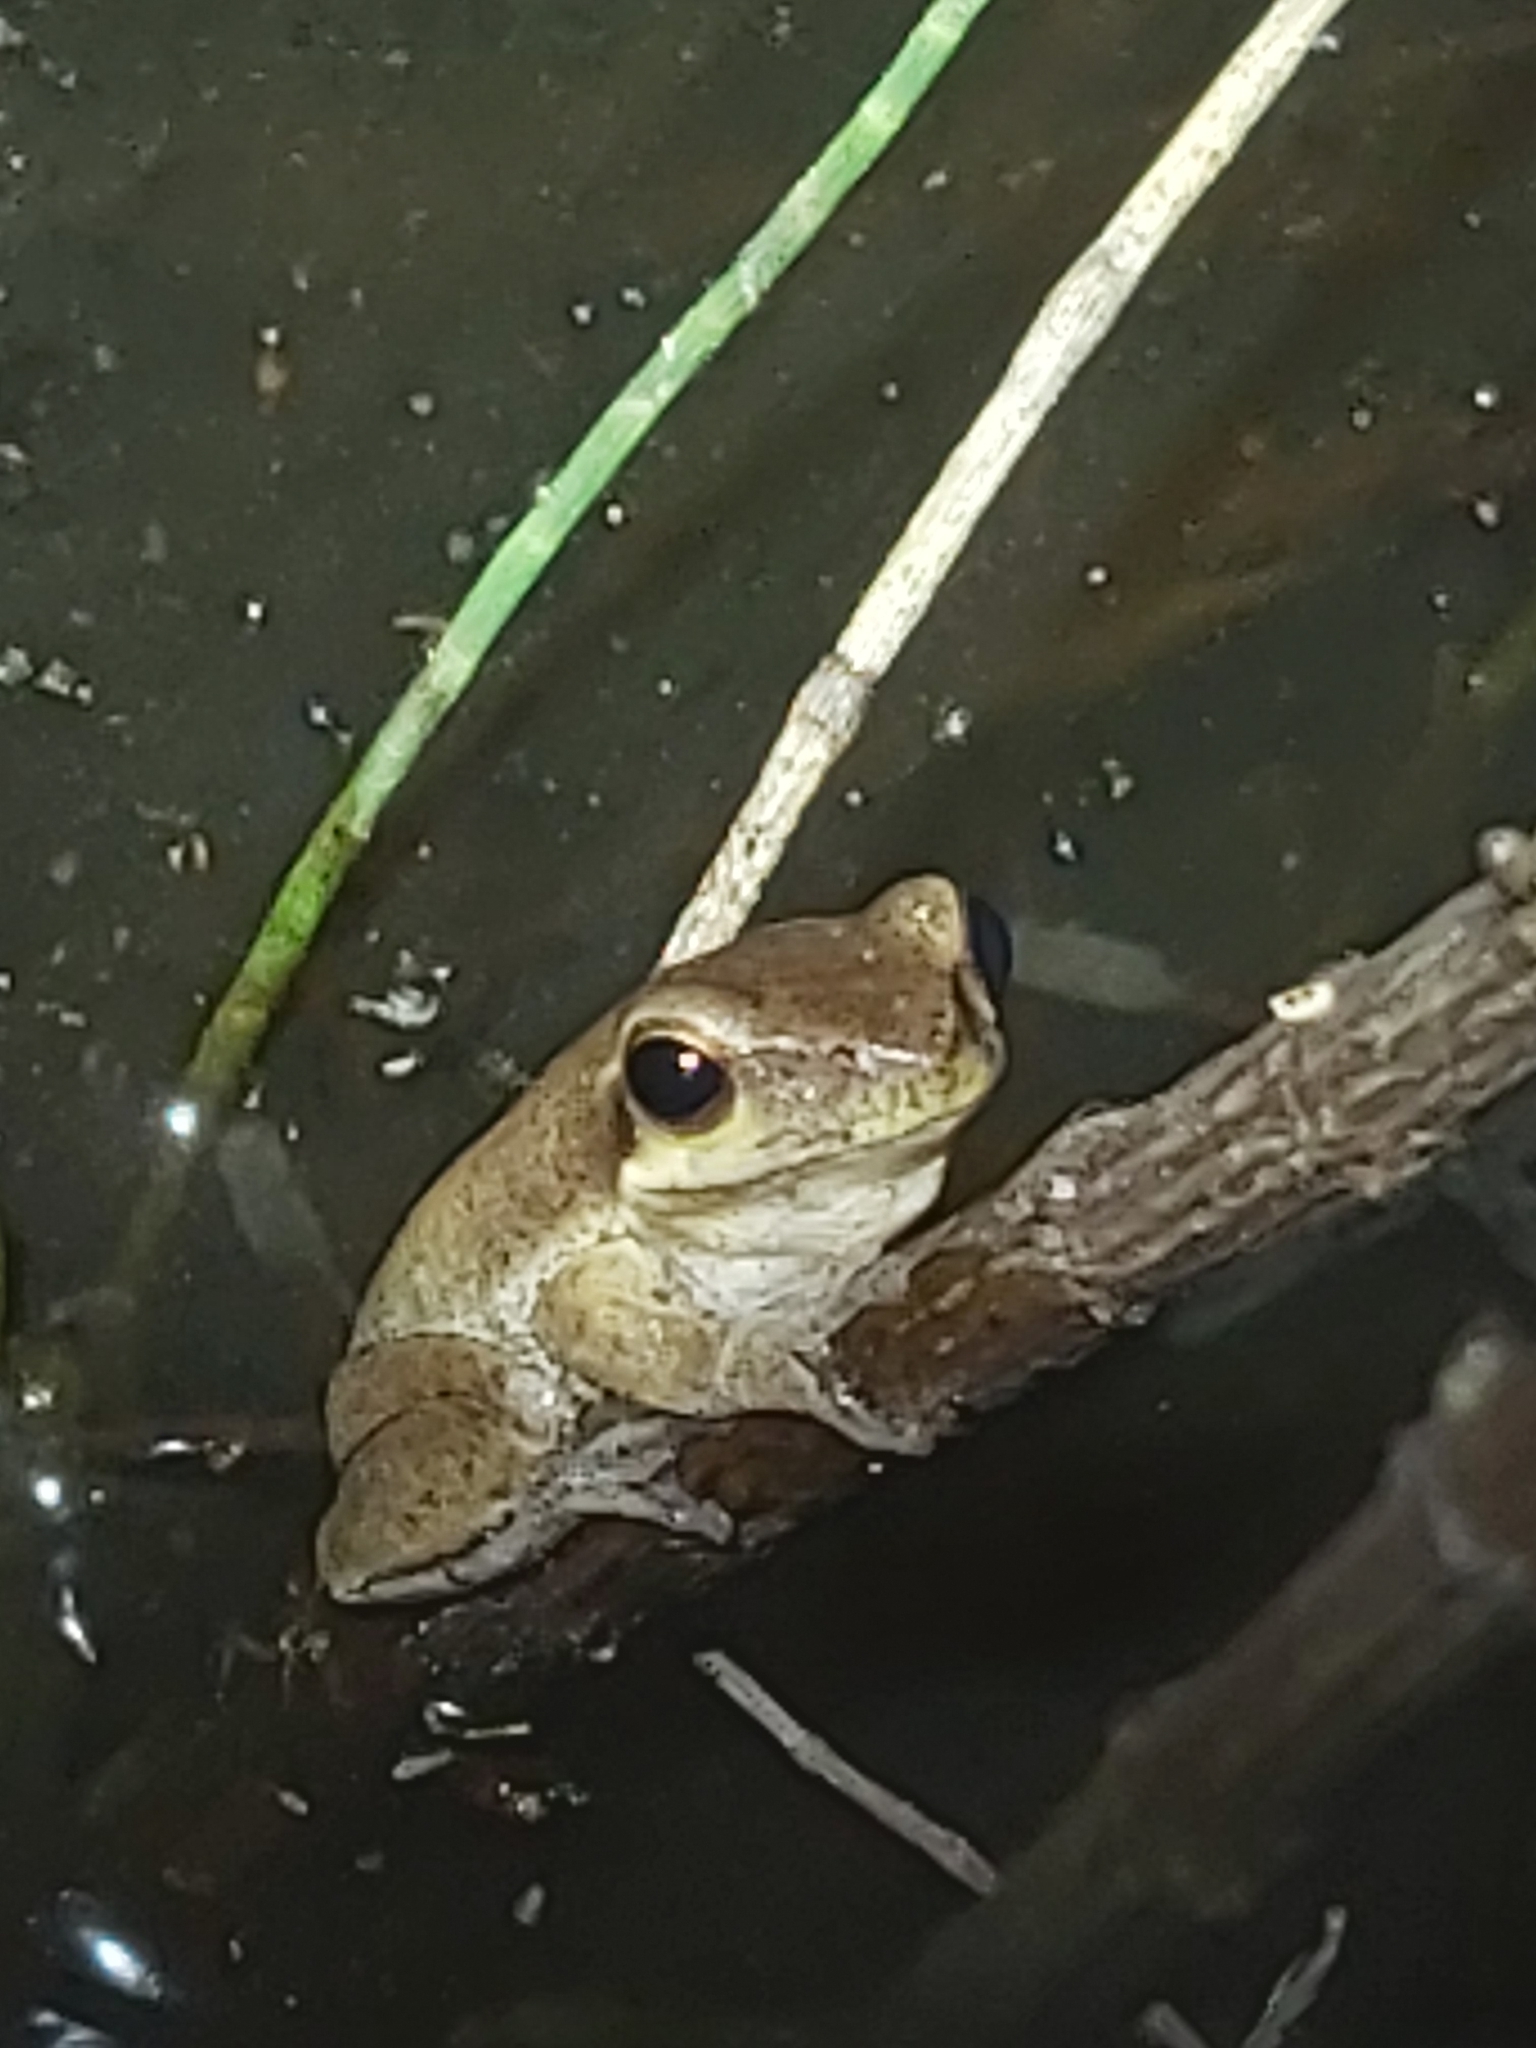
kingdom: Animalia
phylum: Chordata
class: Amphibia
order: Anura
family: Pelodryadidae
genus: Litoria
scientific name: Litoria fallax
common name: Eastern dwarf treefrog
